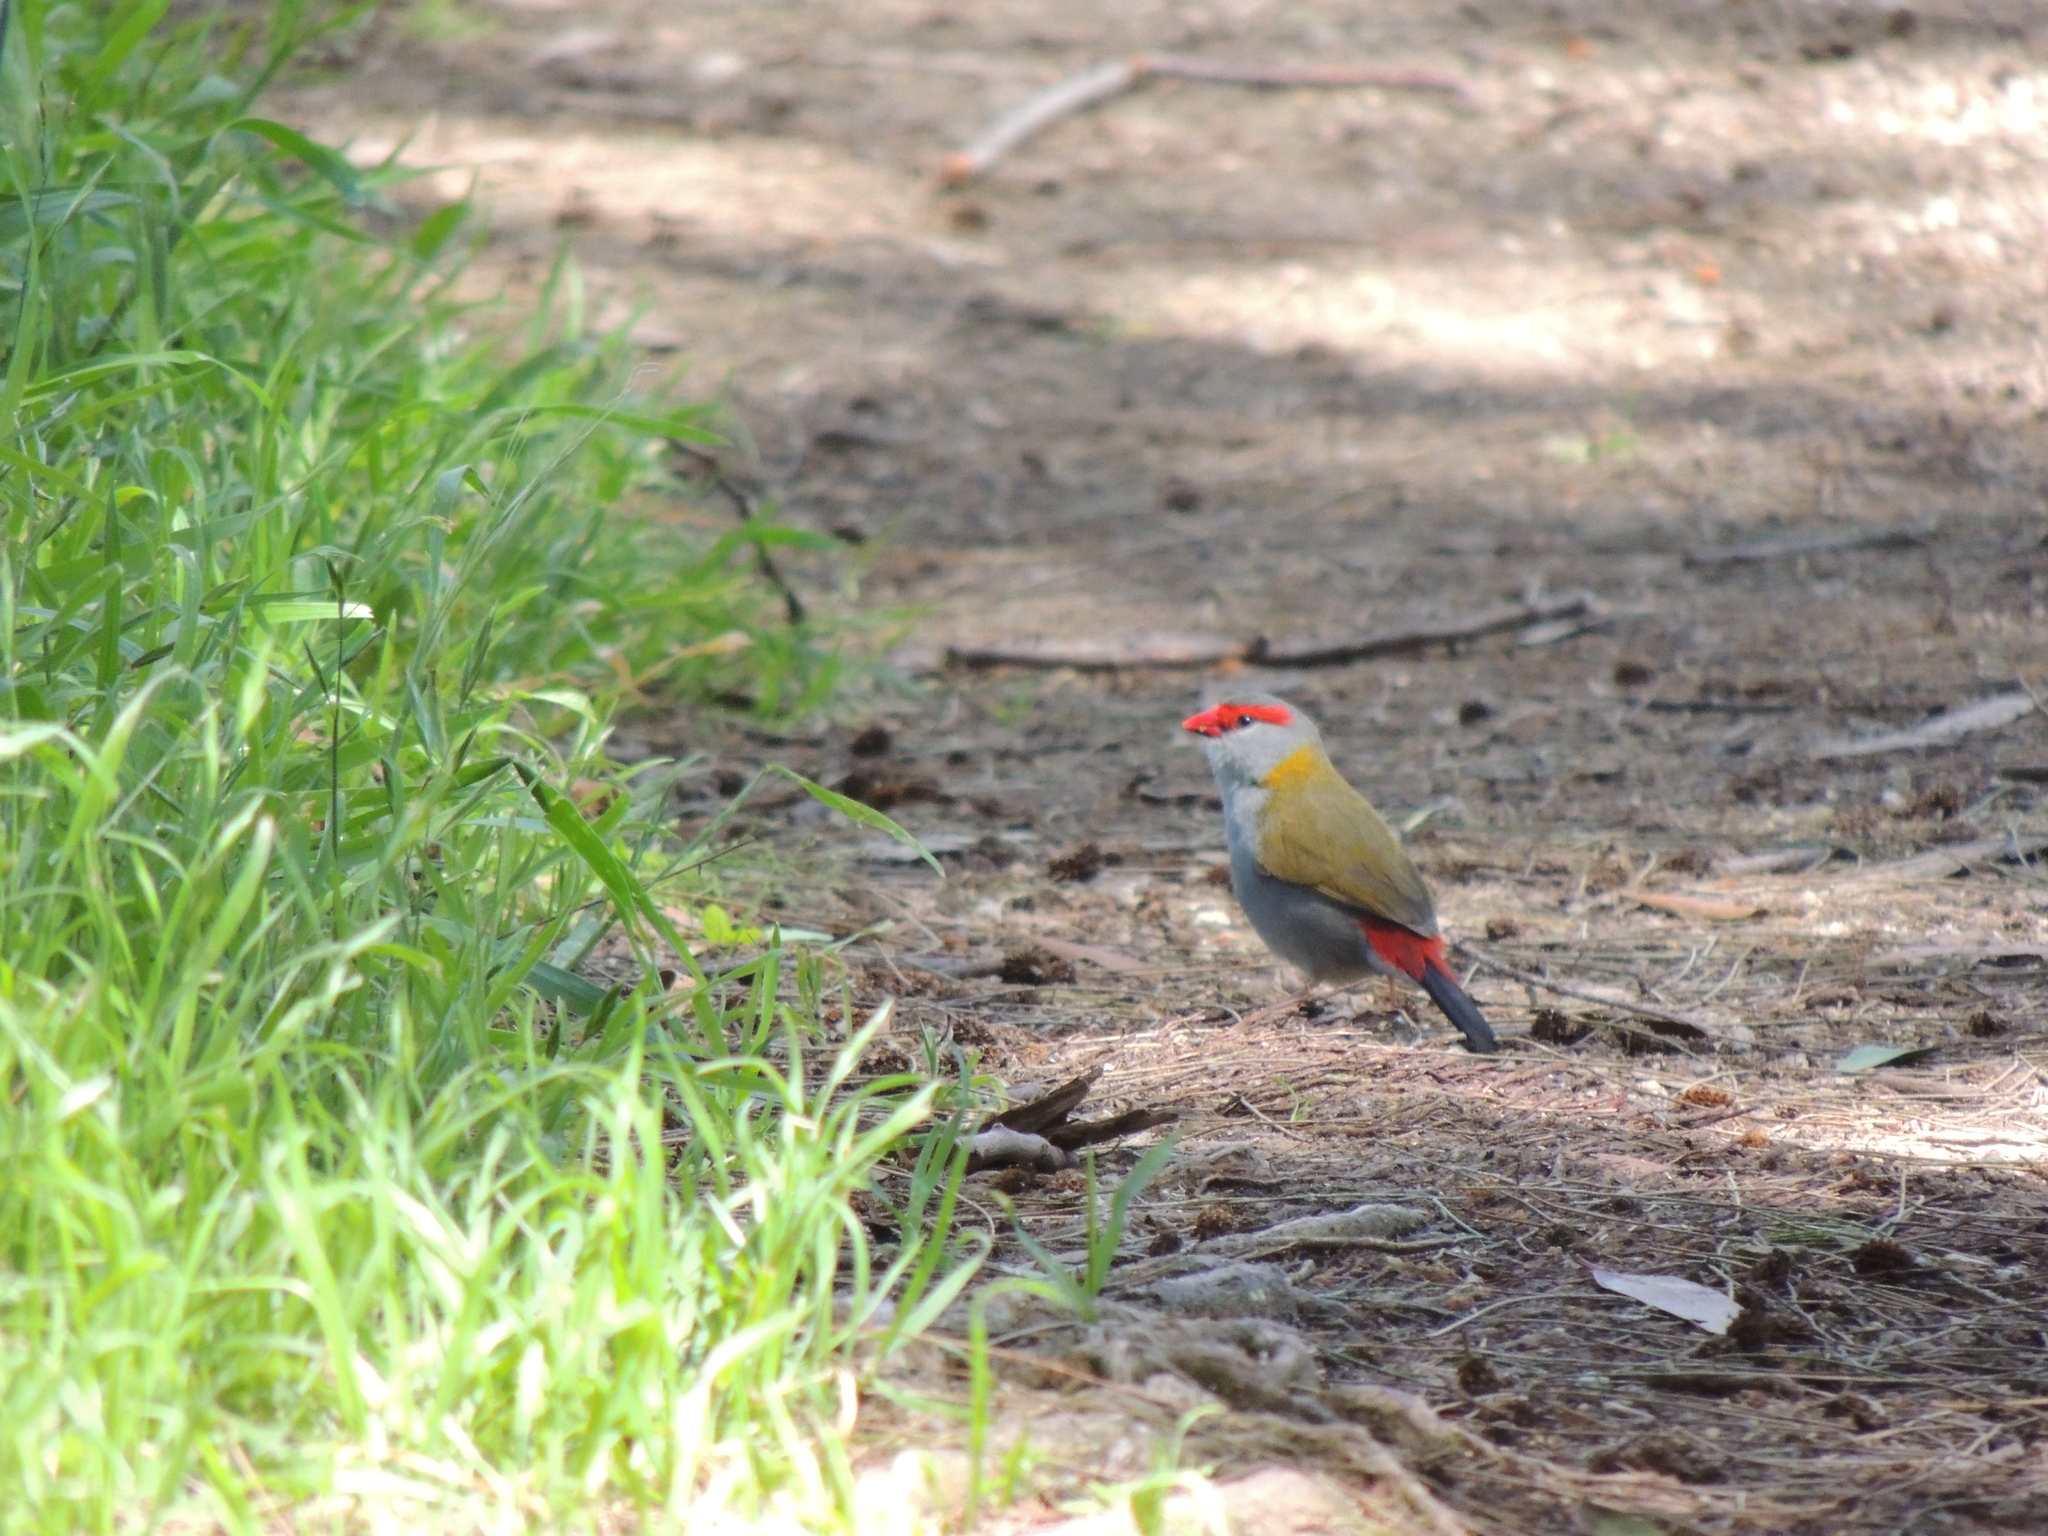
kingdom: Animalia
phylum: Chordata
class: Aves
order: Passeriformes
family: Estrildidae
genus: Neochmia
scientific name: Neochmia temporalis
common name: Red-browed finch
